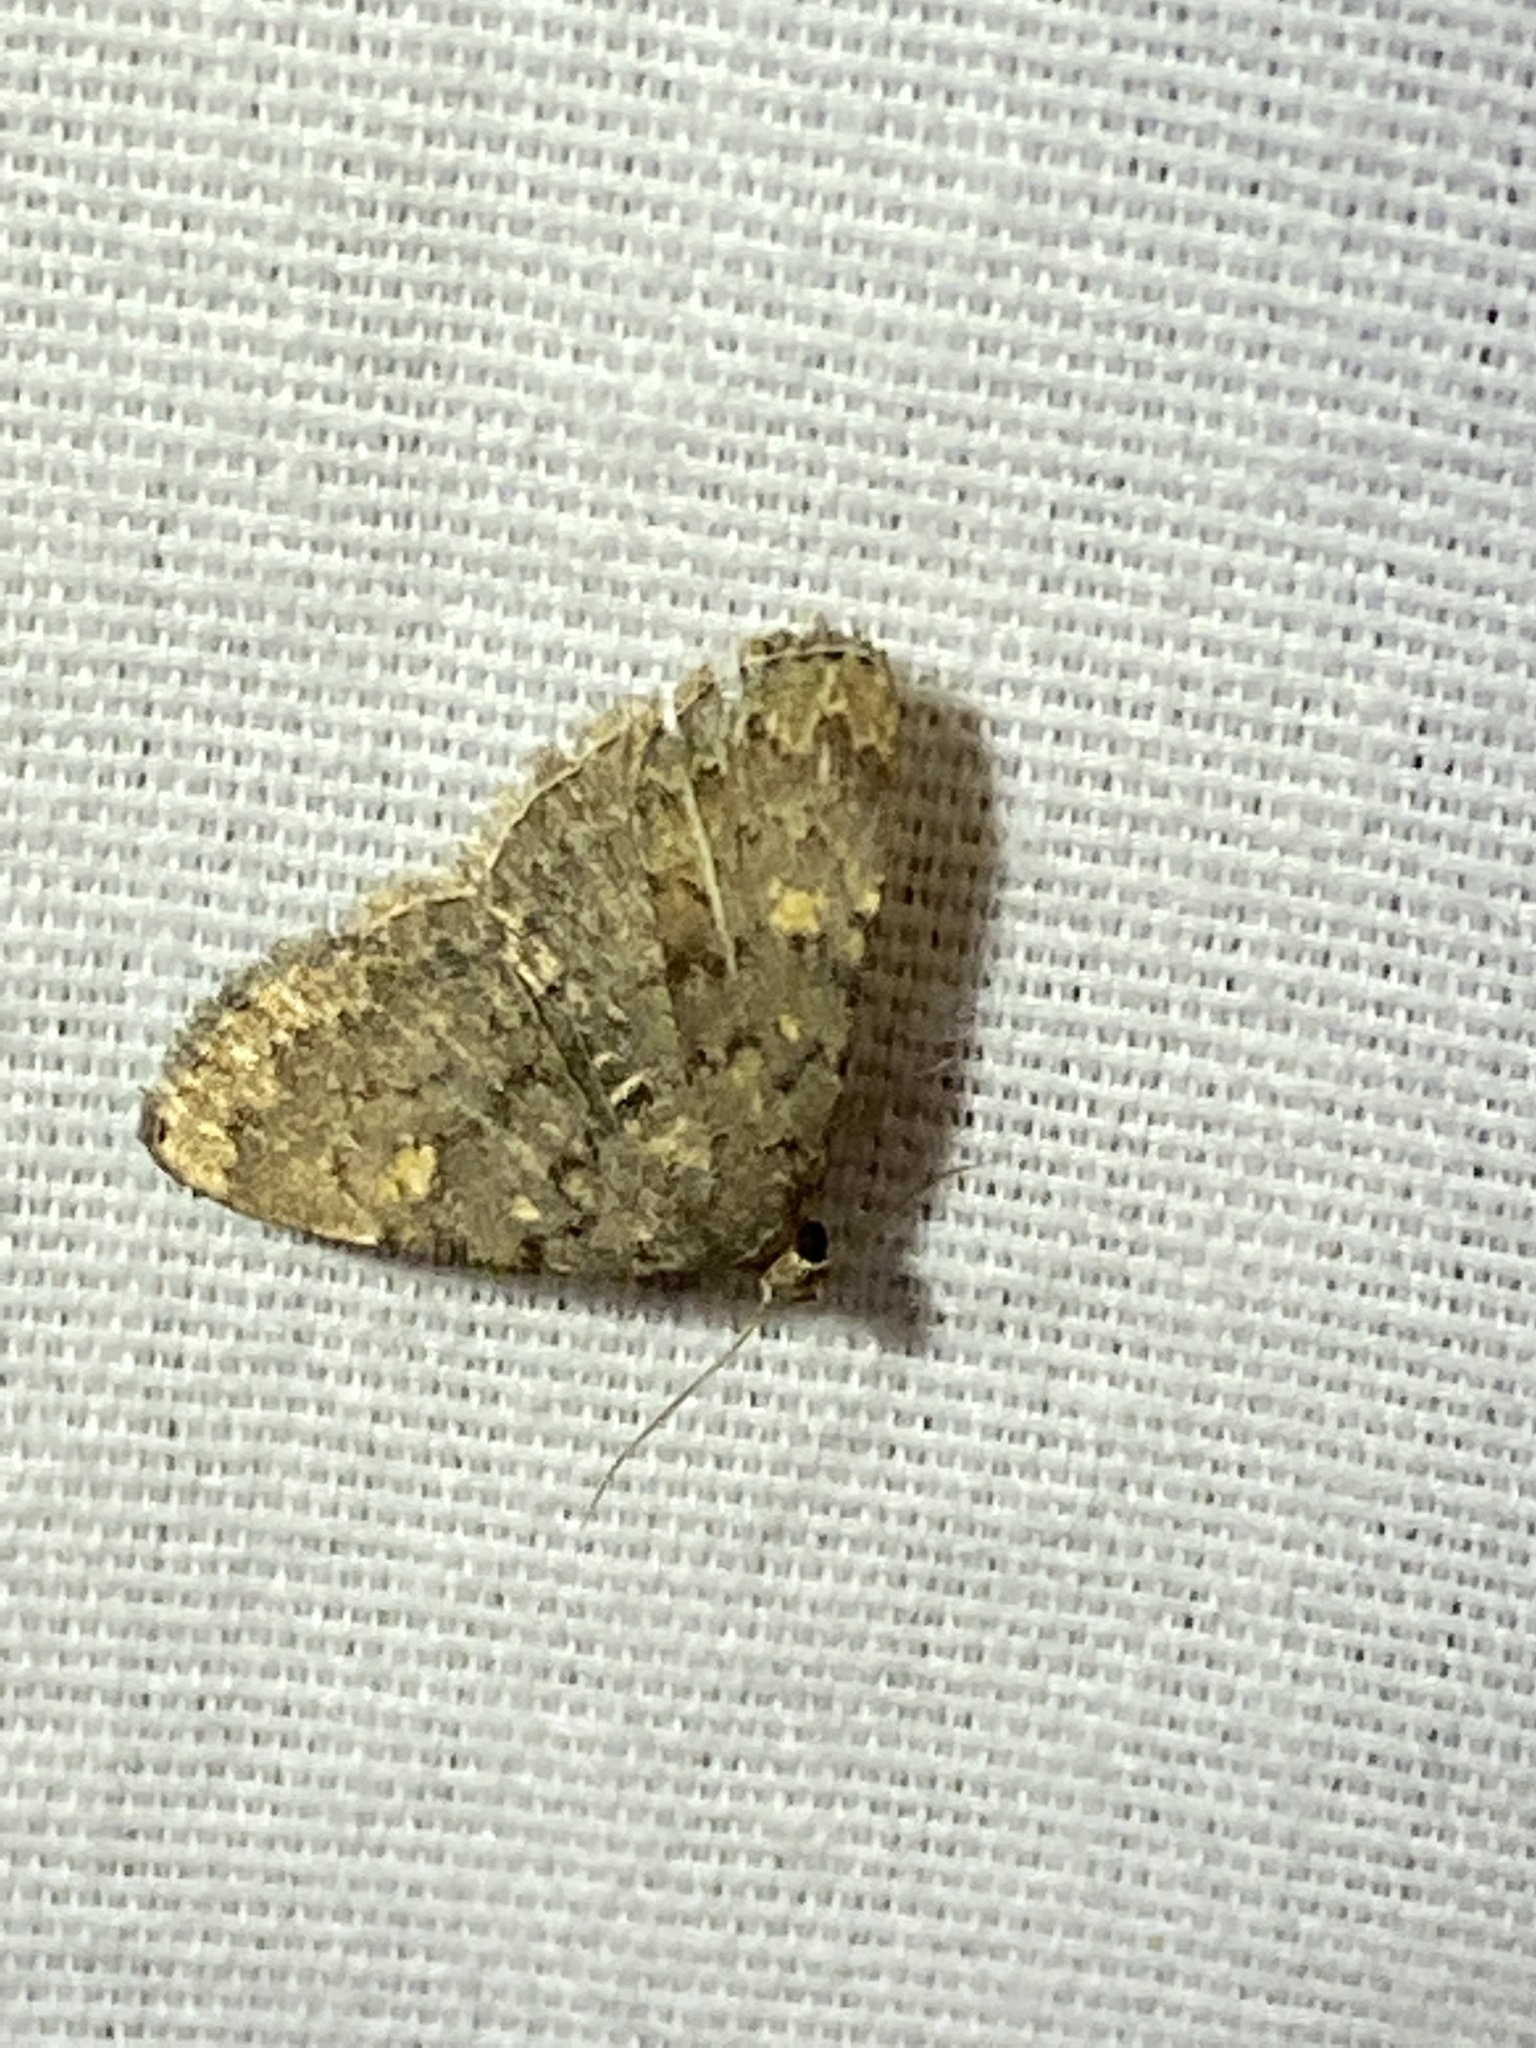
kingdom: Animalia
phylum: Arthropoda
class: Insecta
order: Lepidoptera
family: Erebidae
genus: Idia
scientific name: Idia aemula
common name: Common idia moth
